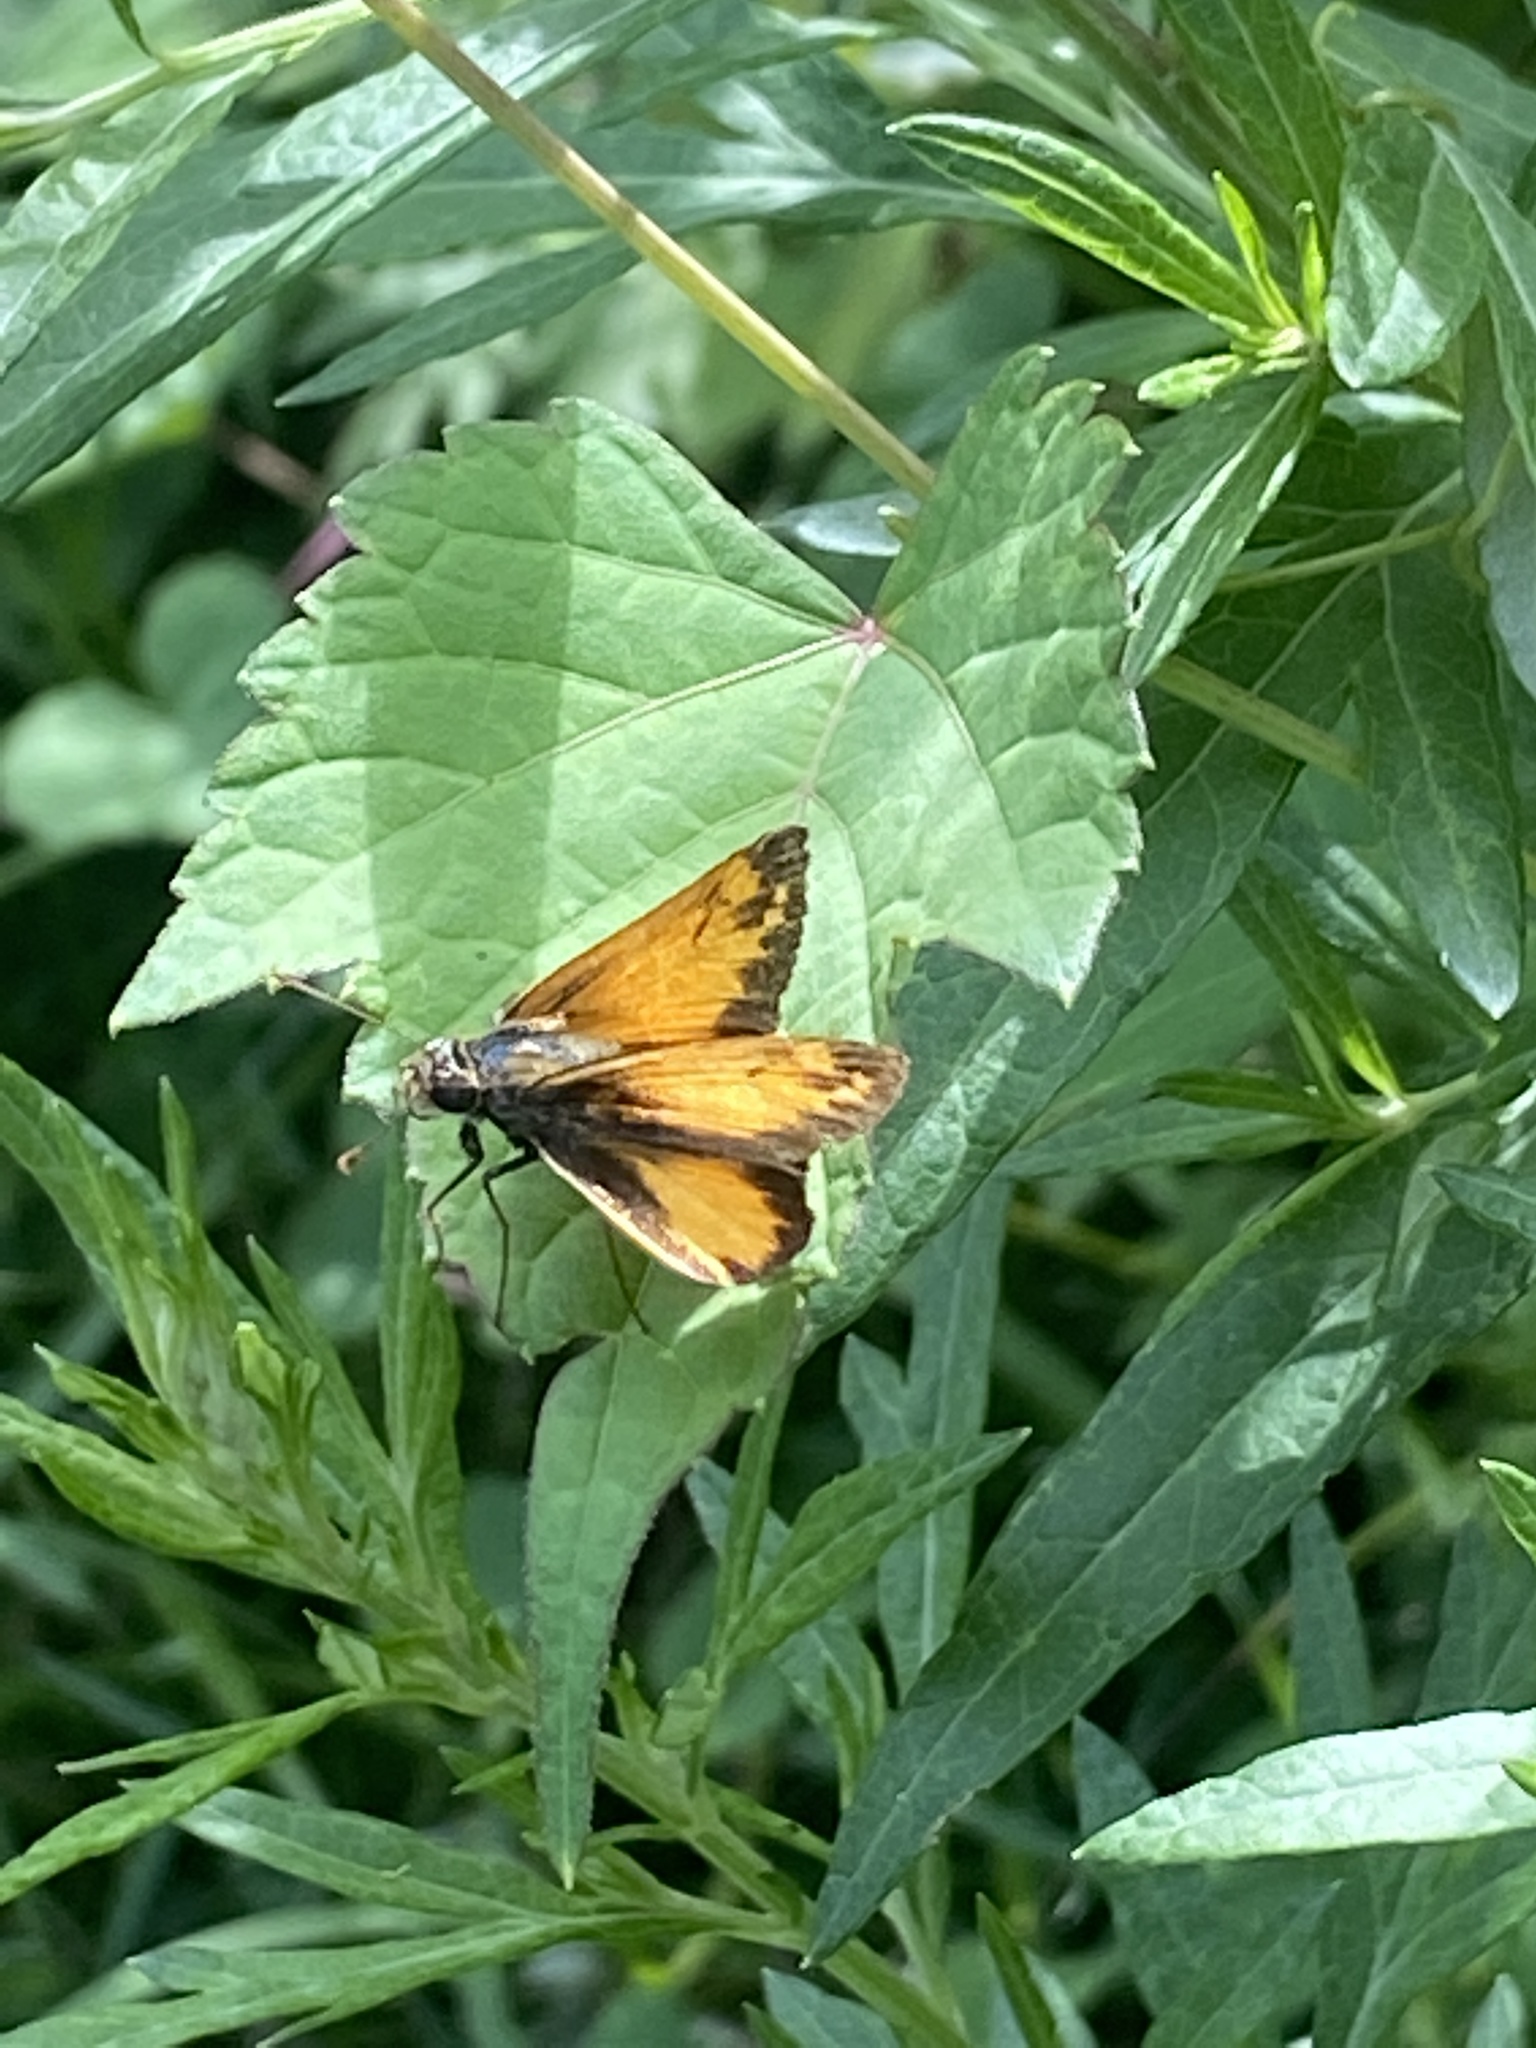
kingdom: Animalia
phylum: Arthropoda
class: Insecta
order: Lepidoptera
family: Hesperiidae
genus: Lon
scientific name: Lon zabulon
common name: Zabulon skipper
